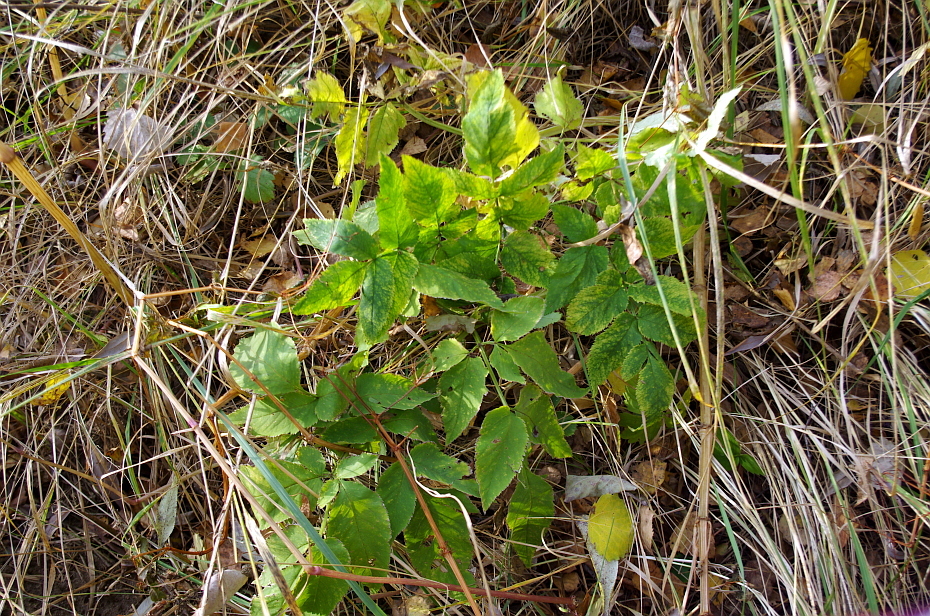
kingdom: Plantae
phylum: Tracheophyta
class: Magnoliopsida
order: Apiales
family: Apiaceae
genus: Angelica
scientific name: Angelica sylvestris
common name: Wild angelica
